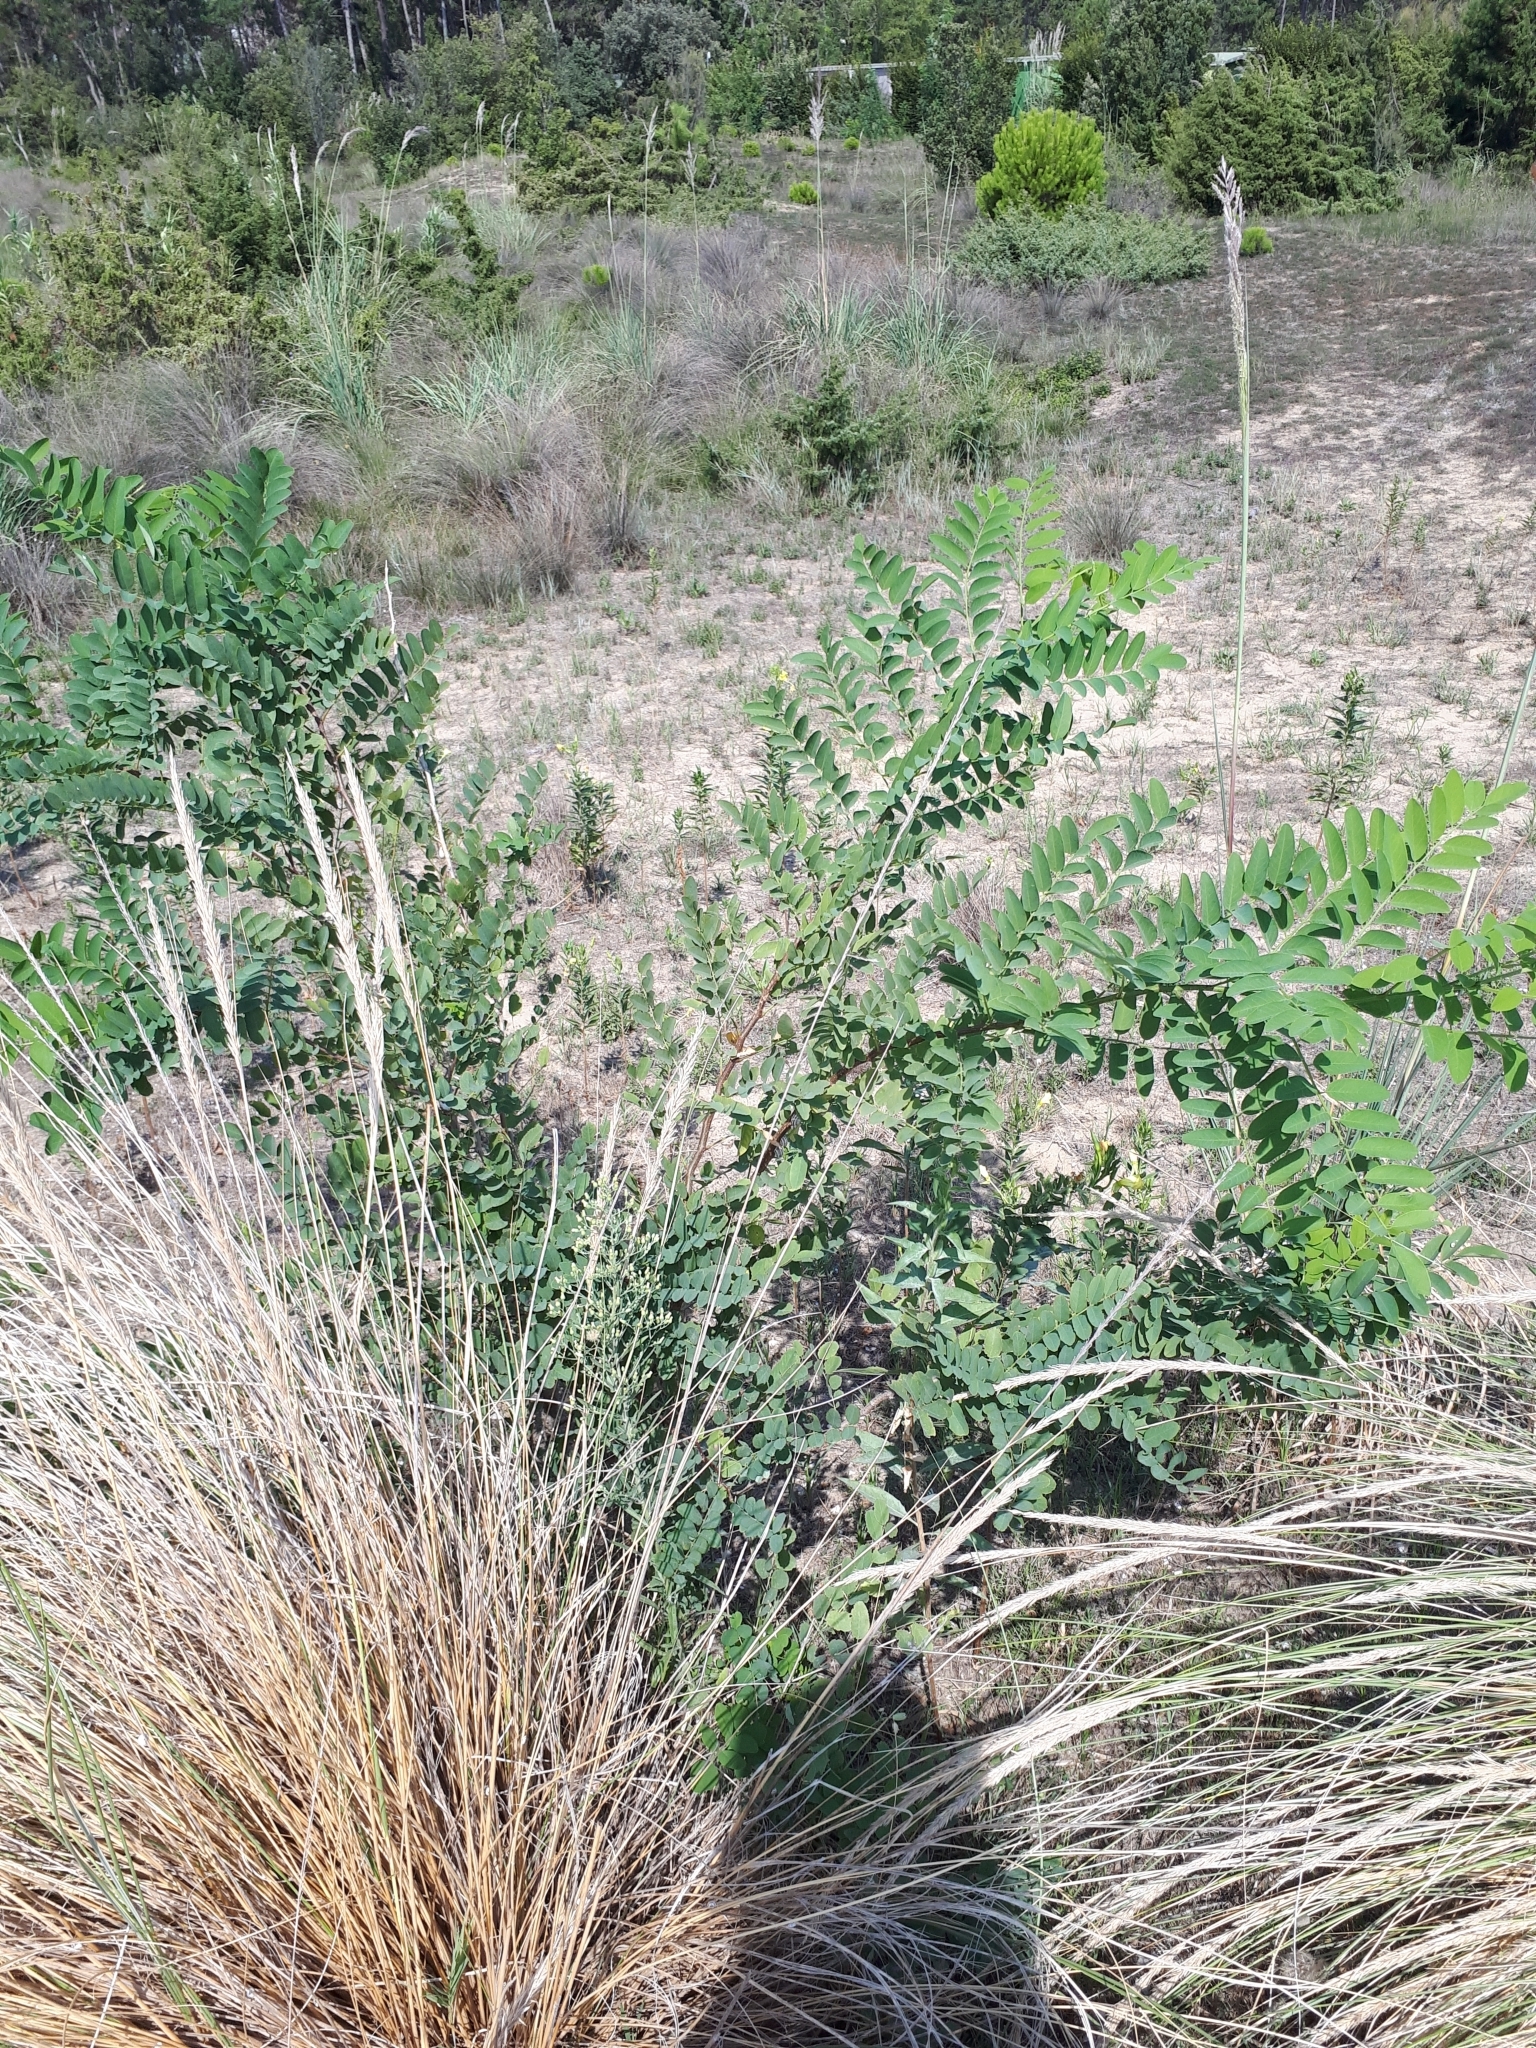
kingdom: Plantae
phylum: Tracheophyta
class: Magnoliopsida
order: Fabales
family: Fabaceae
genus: Robinia
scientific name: Robinia pseudoacacia
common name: Black locust
